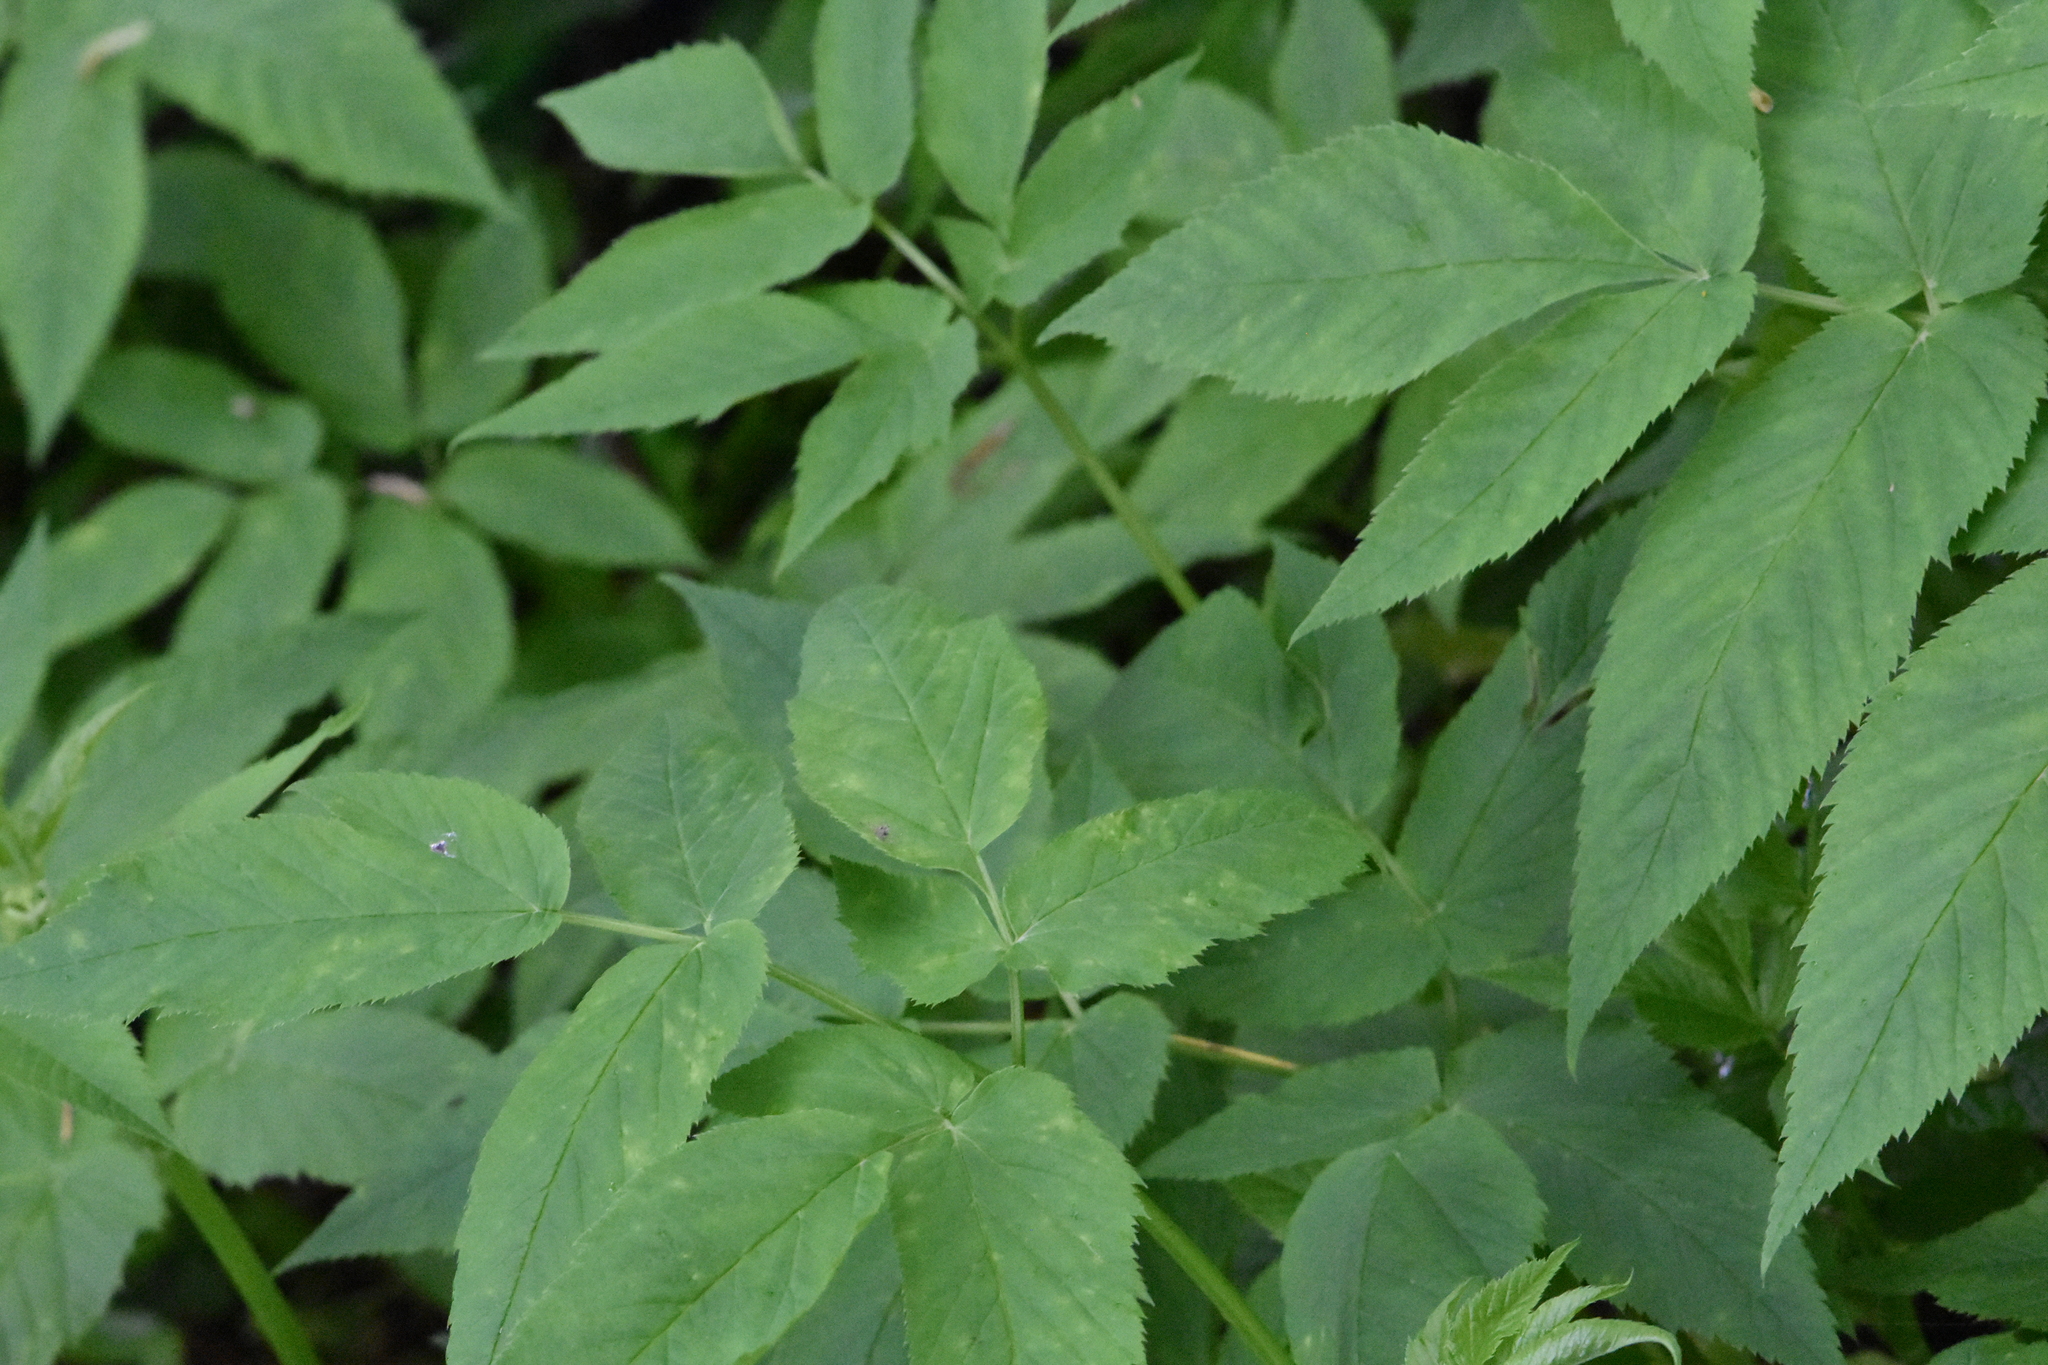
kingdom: Plantae
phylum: Tracheophyta
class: Magnoliopsida
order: Apiales
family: Apiaceae
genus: Aegopodium
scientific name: Aegopodium podagraria
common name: Ground-elder
